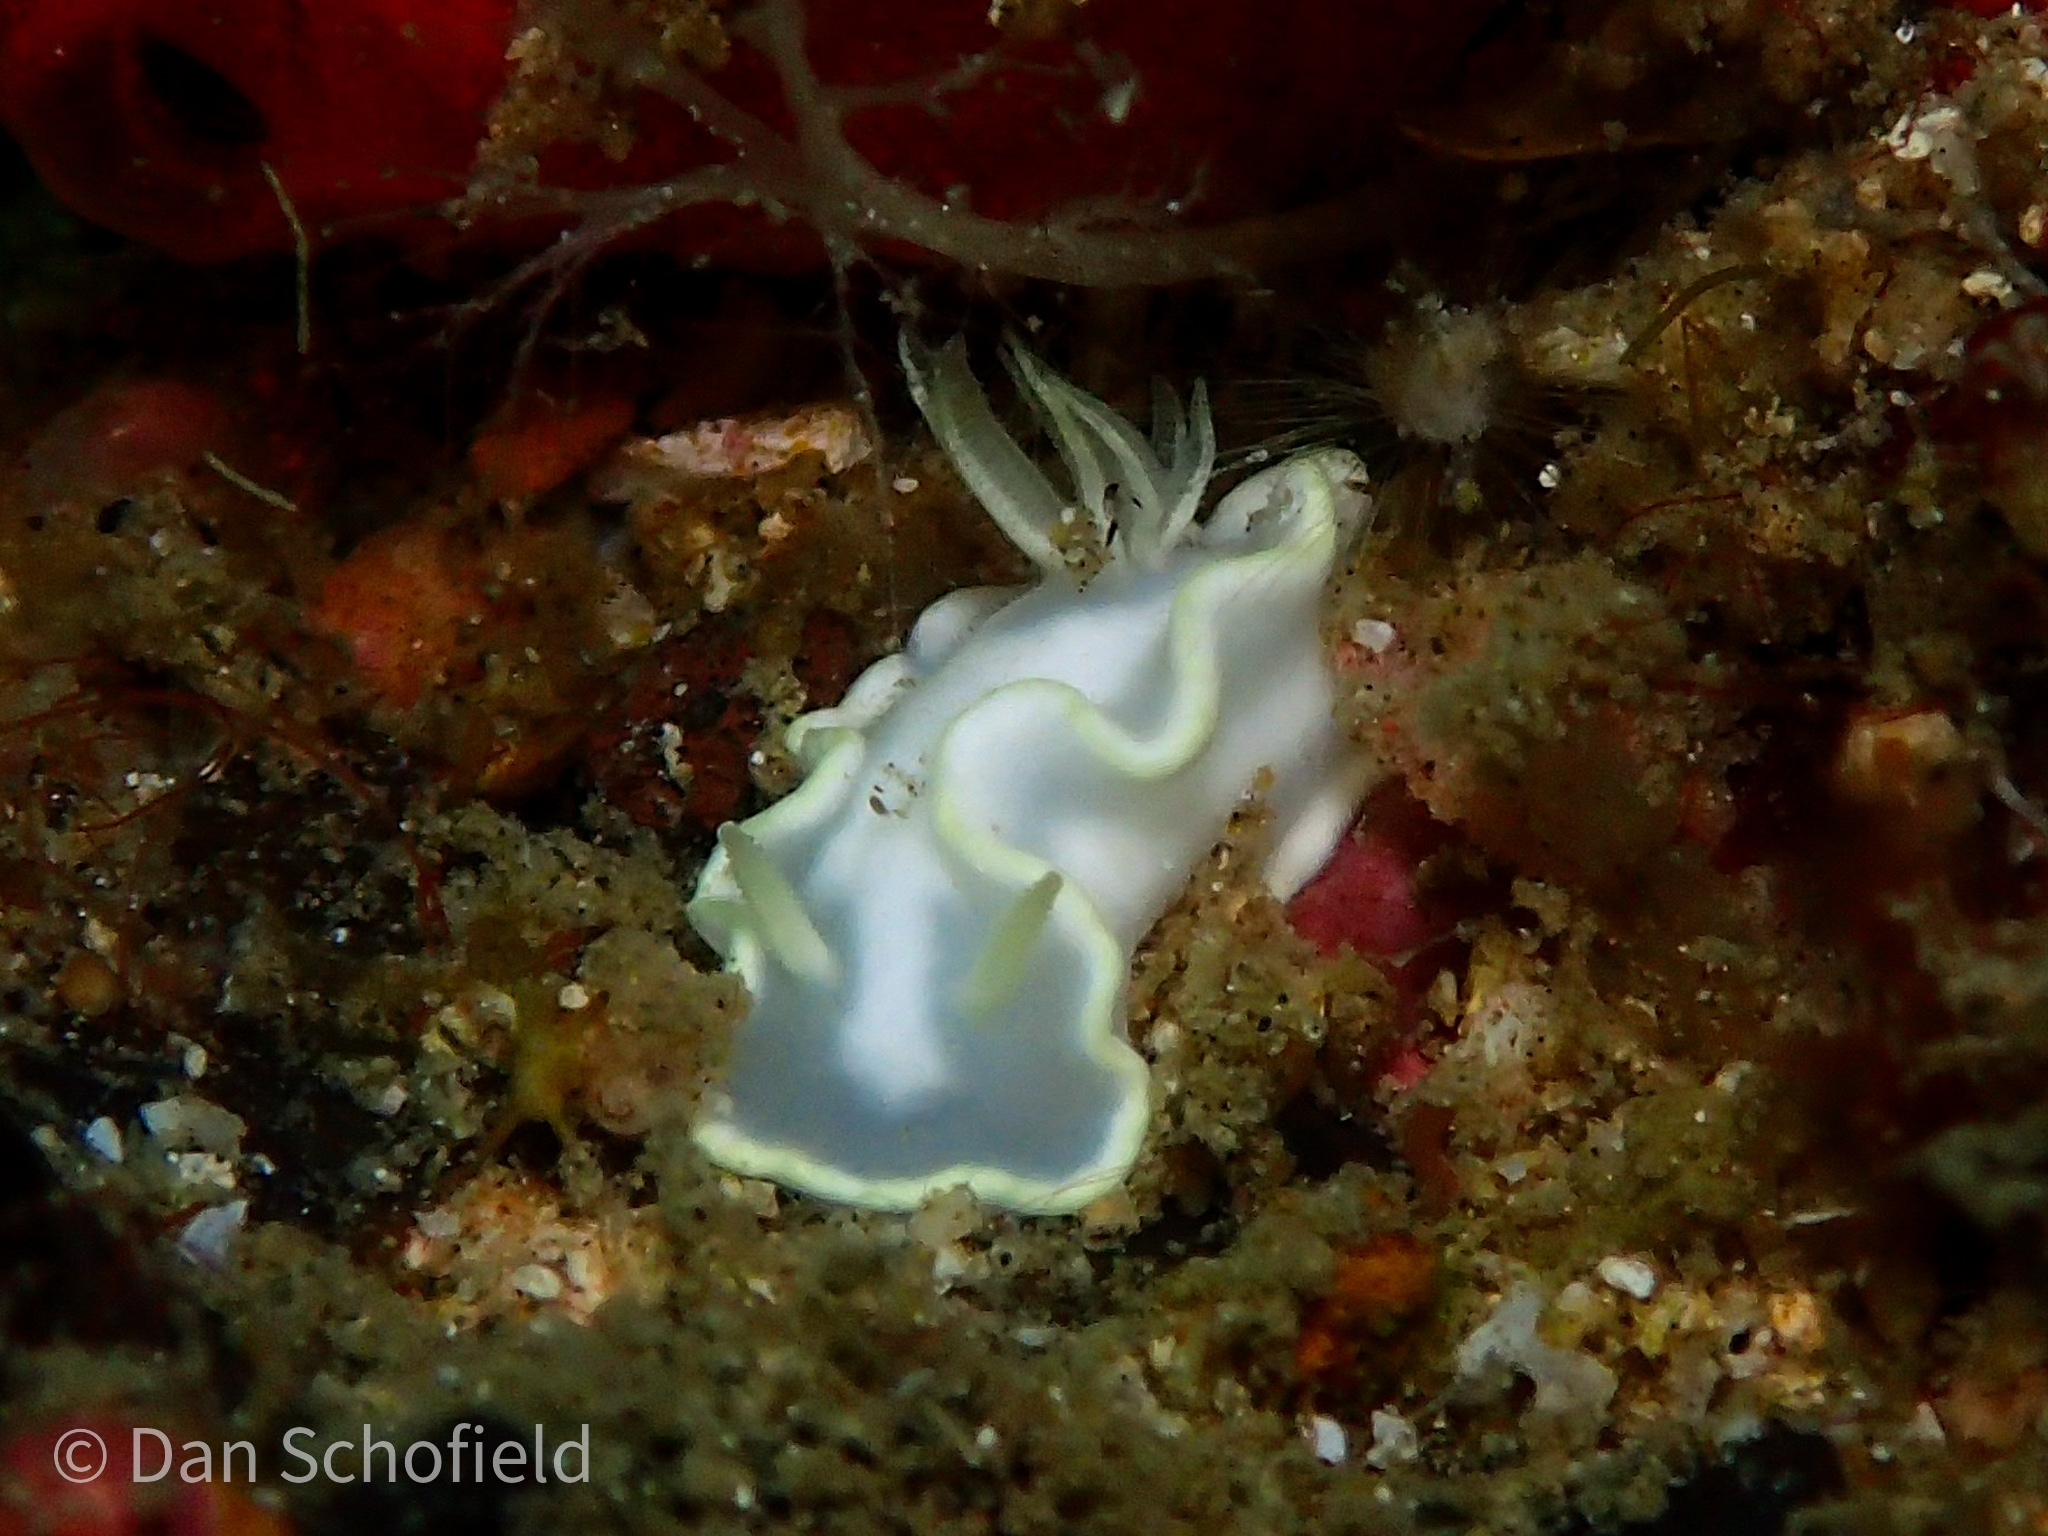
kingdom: Animalia
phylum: Mollusca
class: Gastropoda
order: Nudibranchia
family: Chromodorididae
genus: Glossodoris
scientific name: Glossodoris buko
